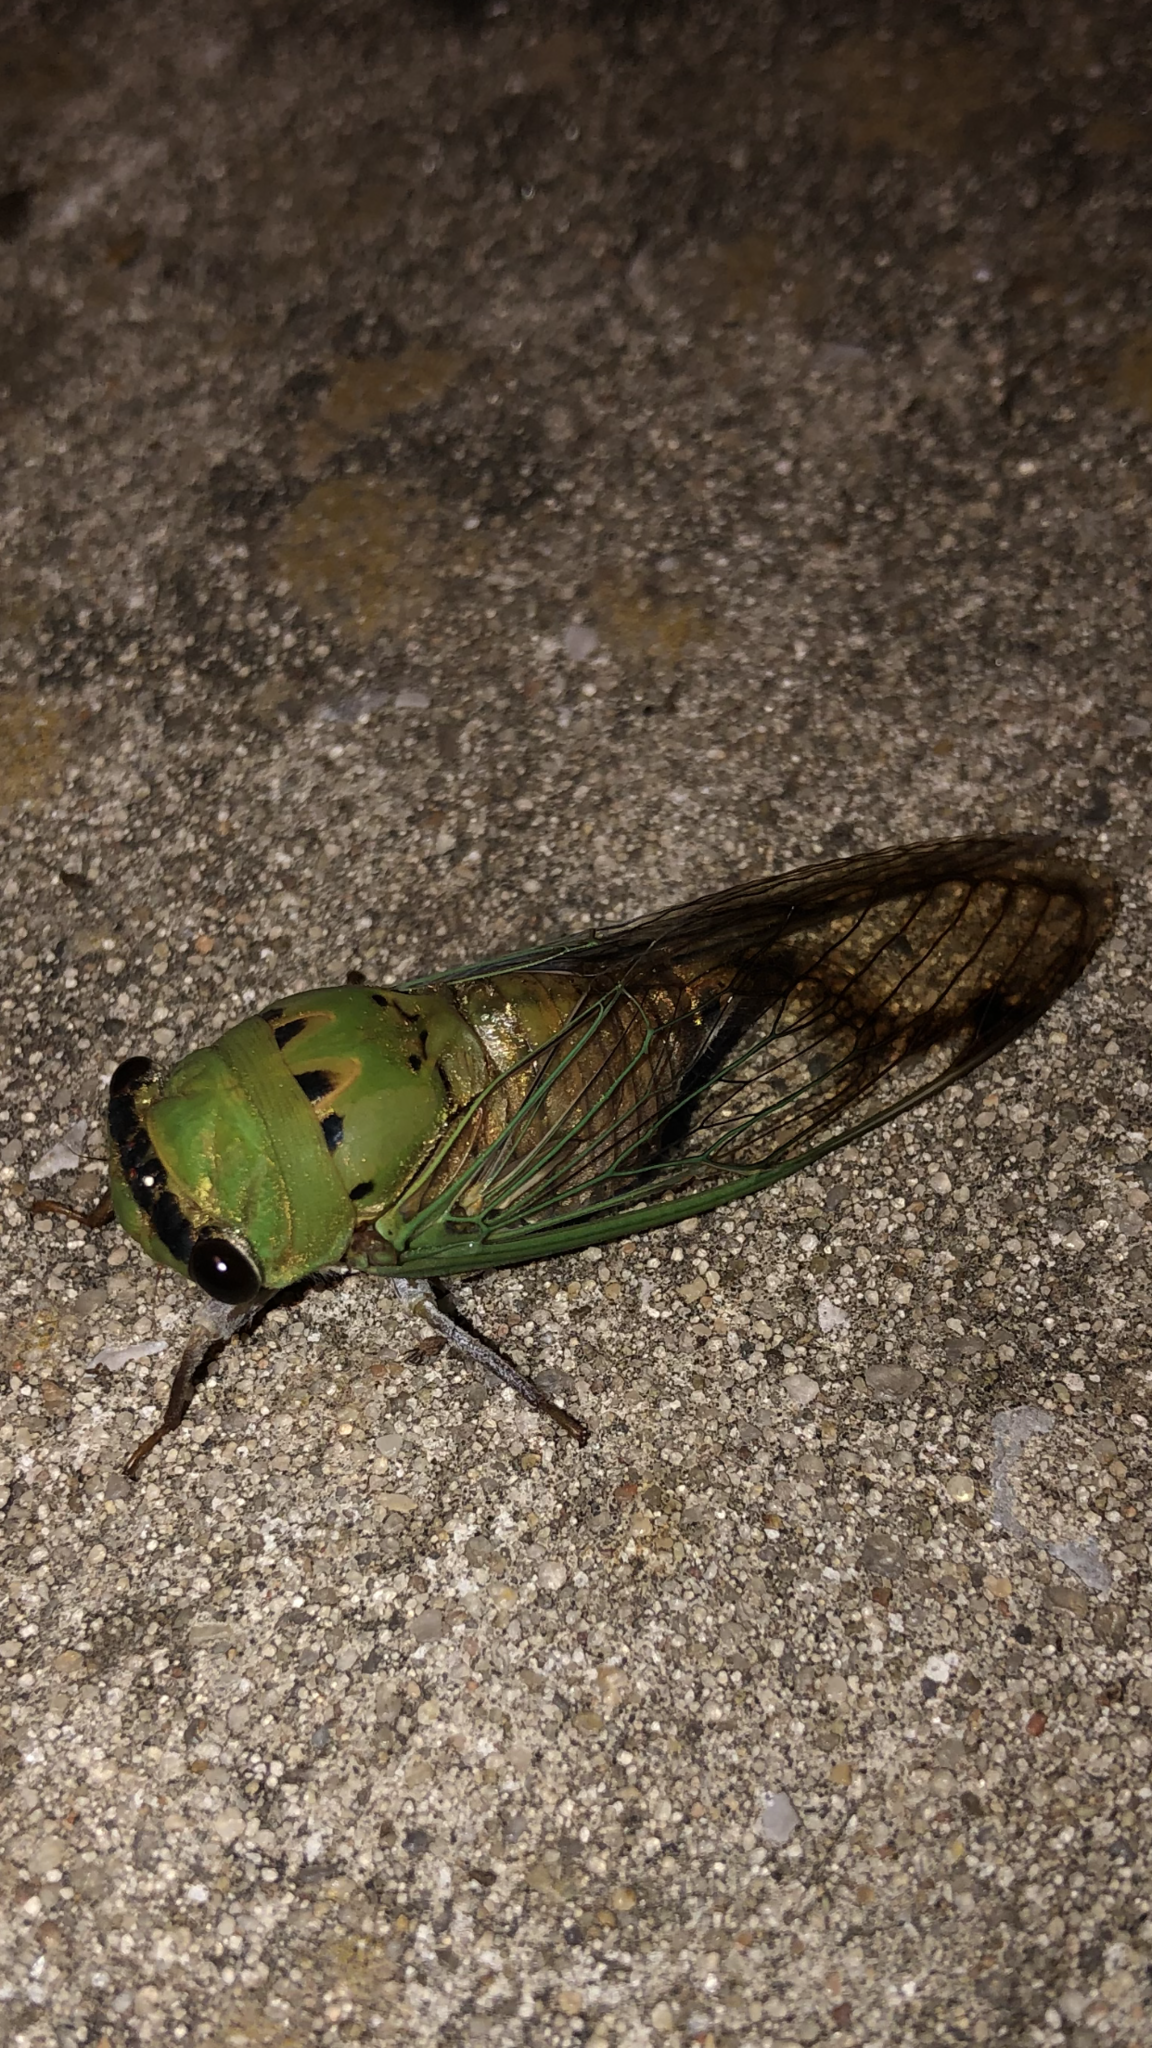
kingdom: Animalia
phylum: Arthropoda
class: Insecta
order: Hemiptera
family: Cicadidae
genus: Neotibicen
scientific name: Neotibicen superbus
